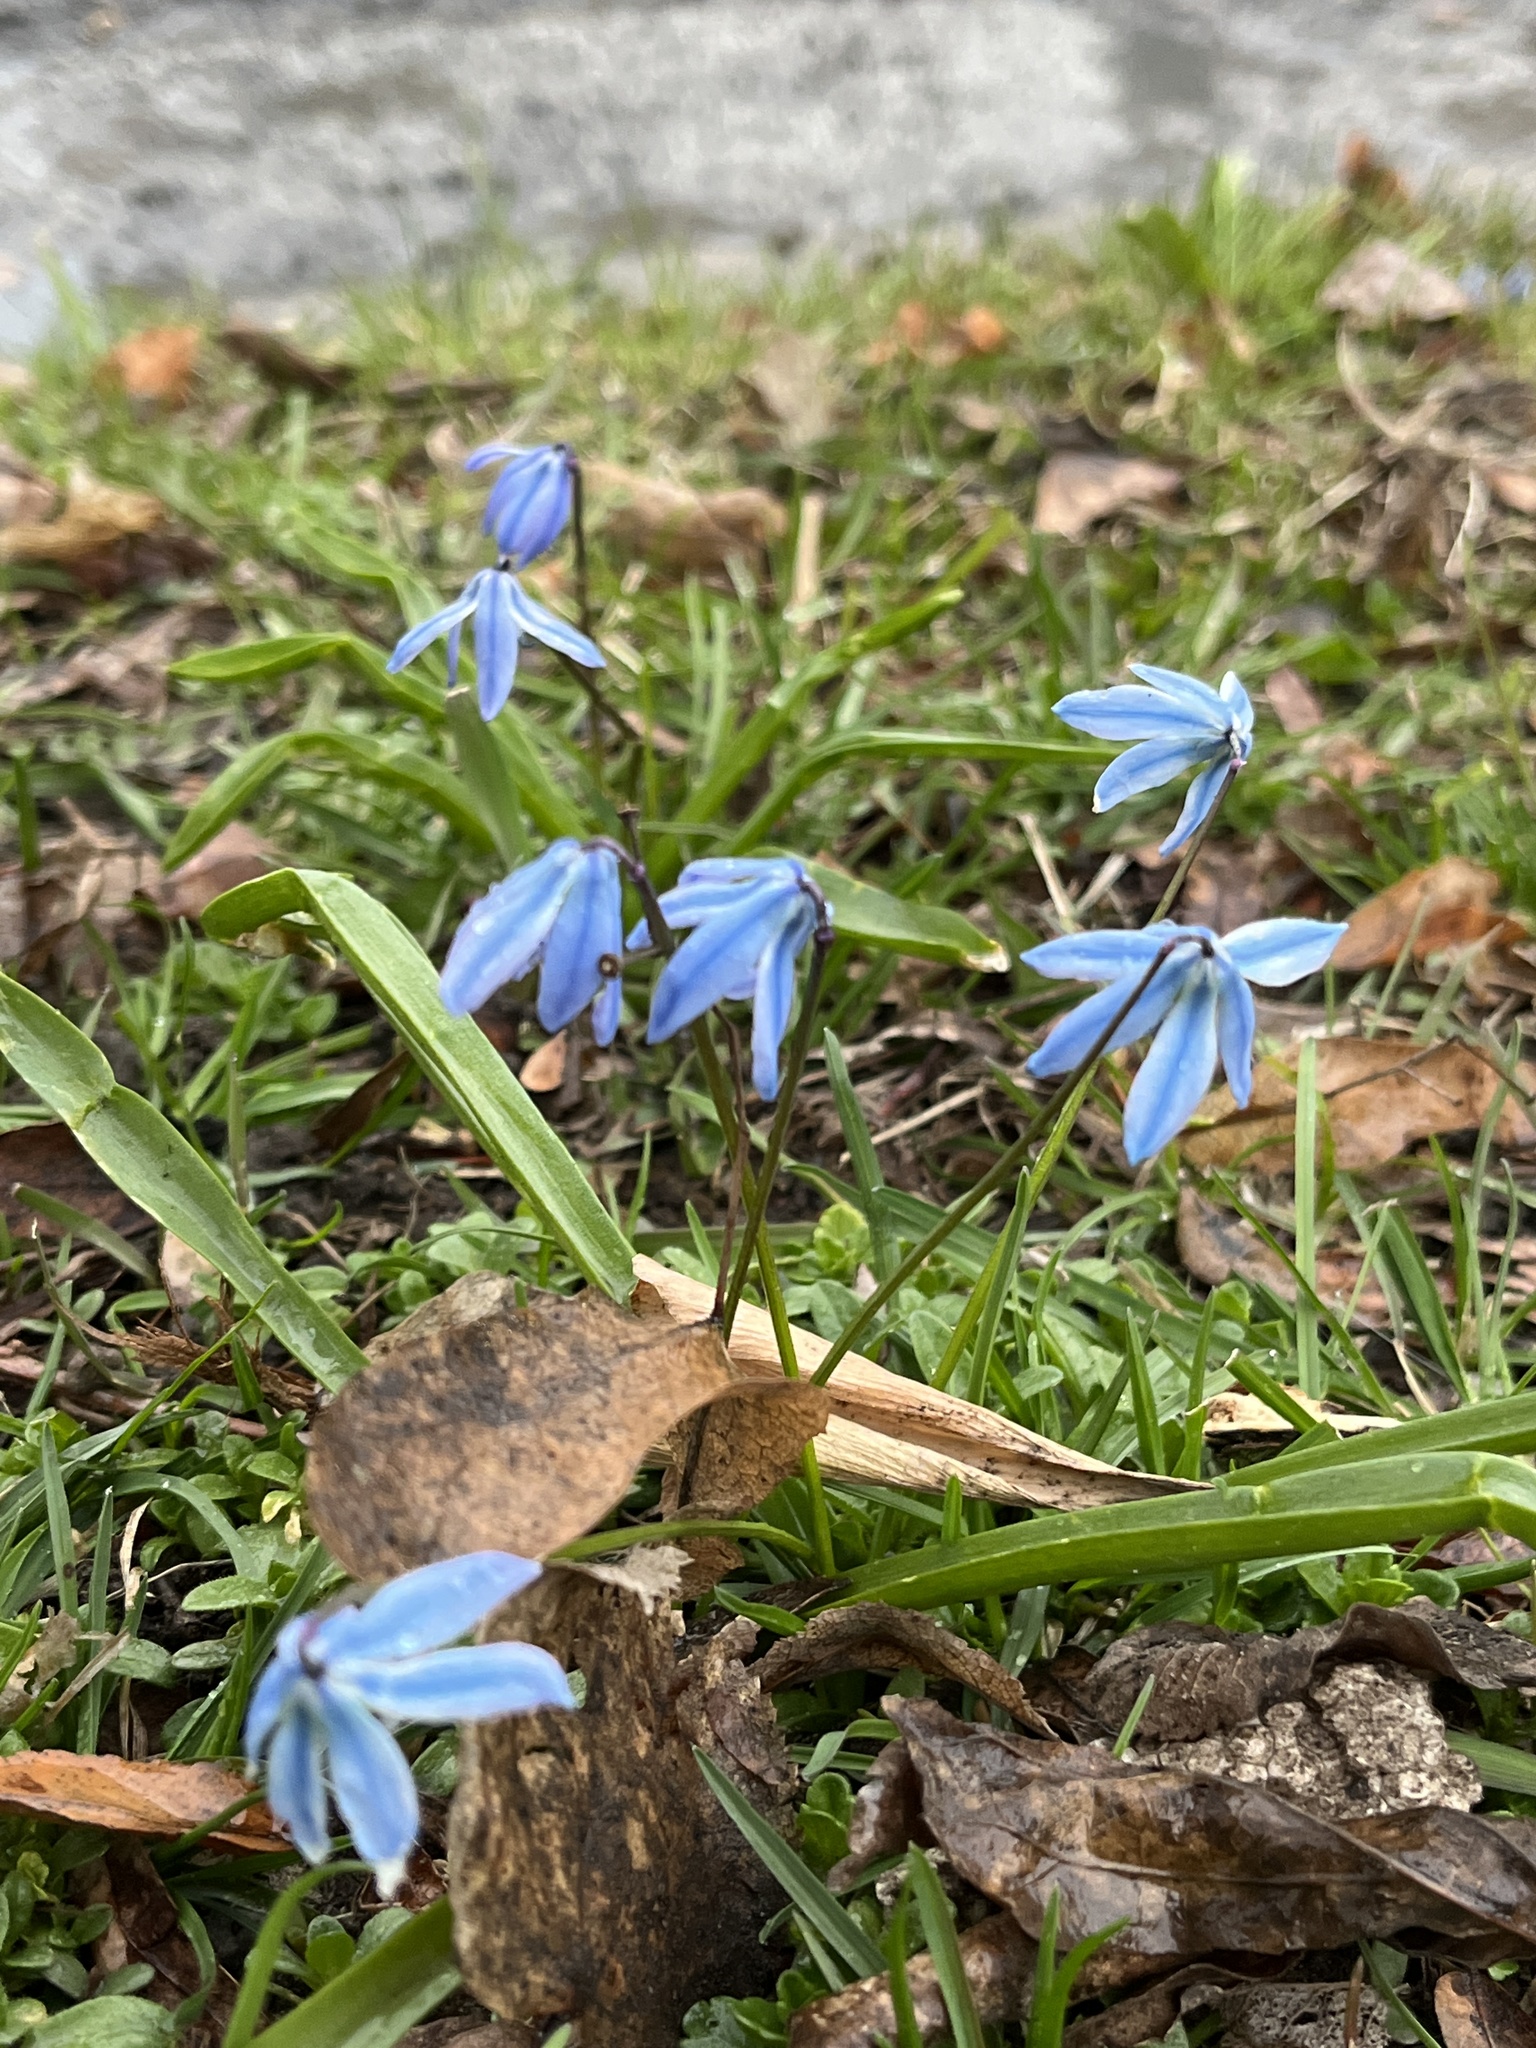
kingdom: Plantae
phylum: Tracheophyta
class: Liliopsida
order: Asparagales
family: Asparagaceae
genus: Scilla
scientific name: Scilla siberica
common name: Siberian squill
